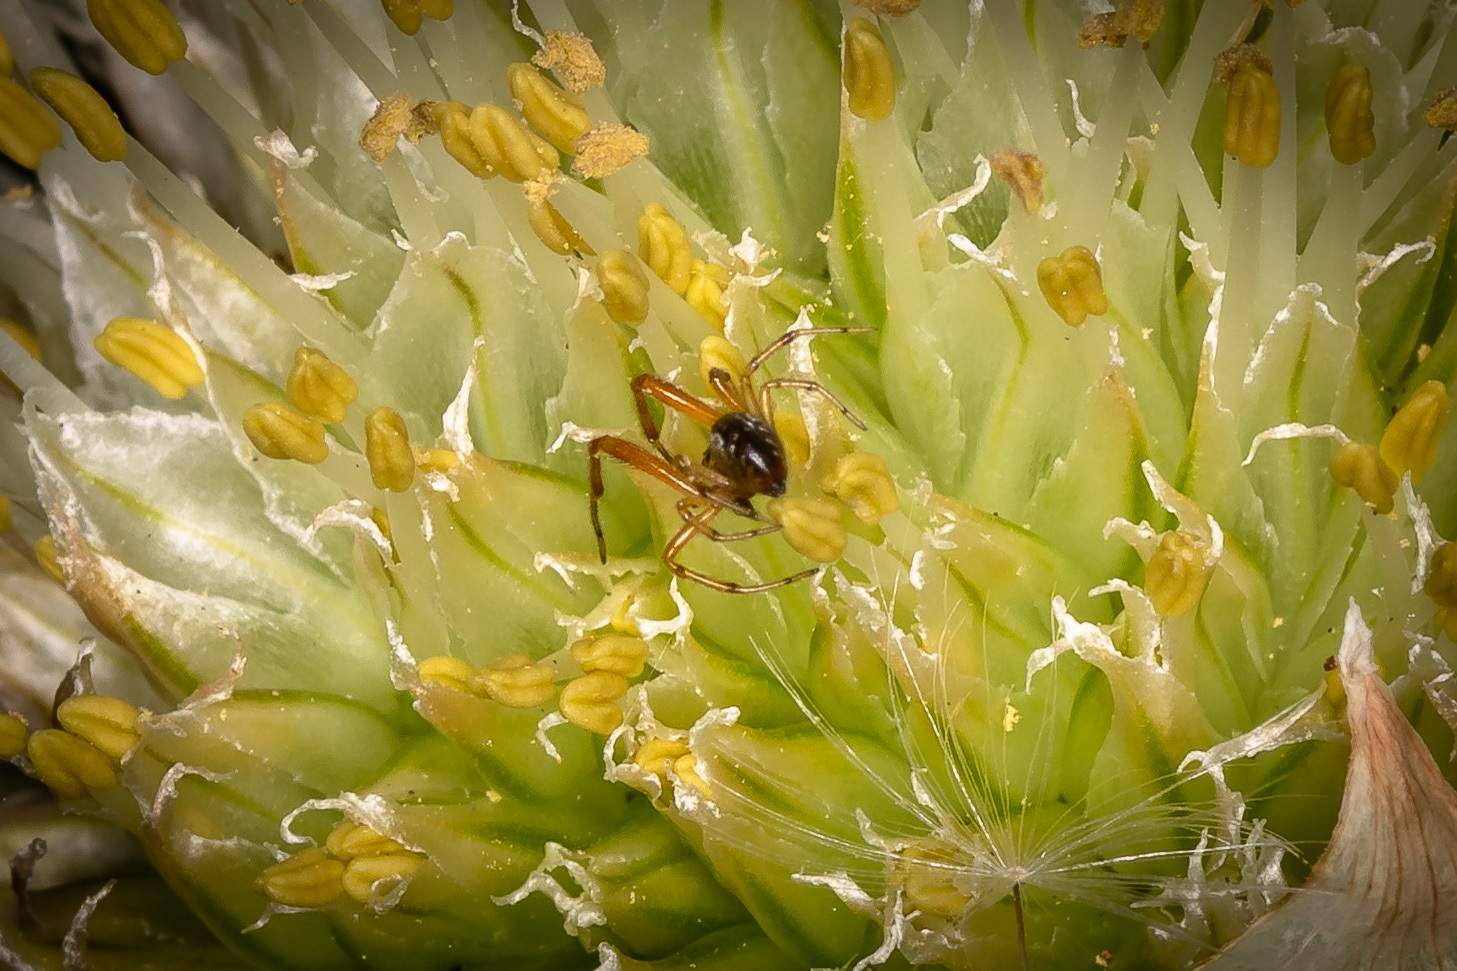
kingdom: Animalia
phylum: Arthropoda
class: Arachnida
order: Araneae
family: Theridiidae
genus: Anelosimus
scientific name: Anelosimus vittatus
